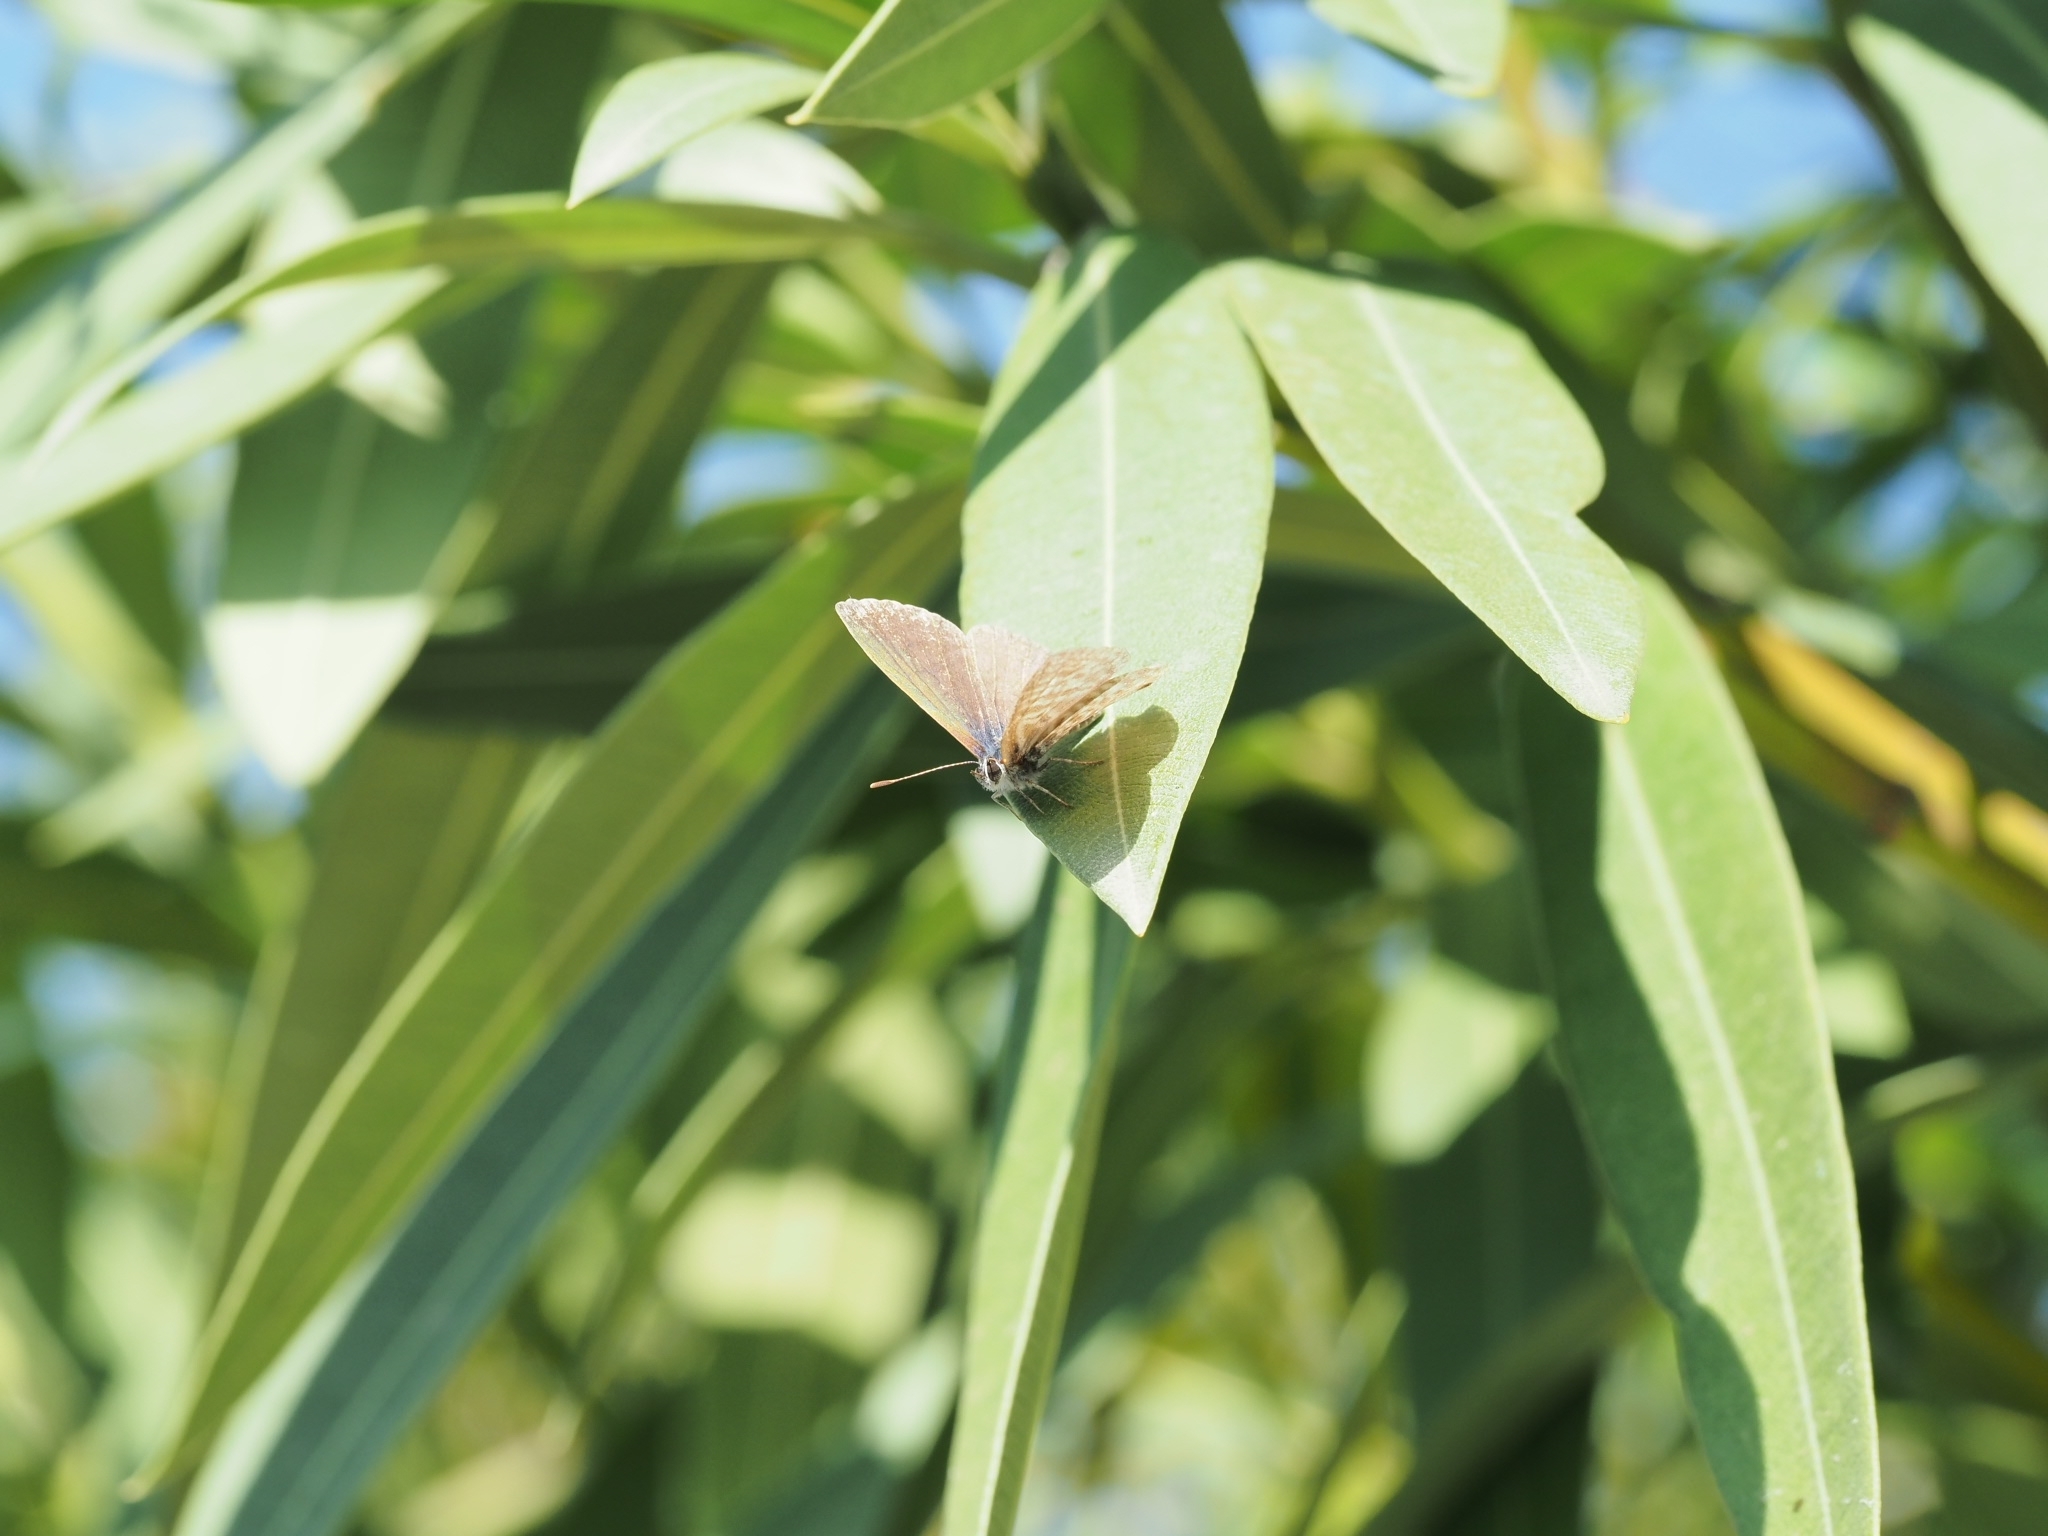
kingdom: Animalia
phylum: Arthropoda
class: Insecta
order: Lepidoptera
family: Lycaenidae
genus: Leptotes
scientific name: Leptotes pirithous
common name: Lang's short-tailed blue
